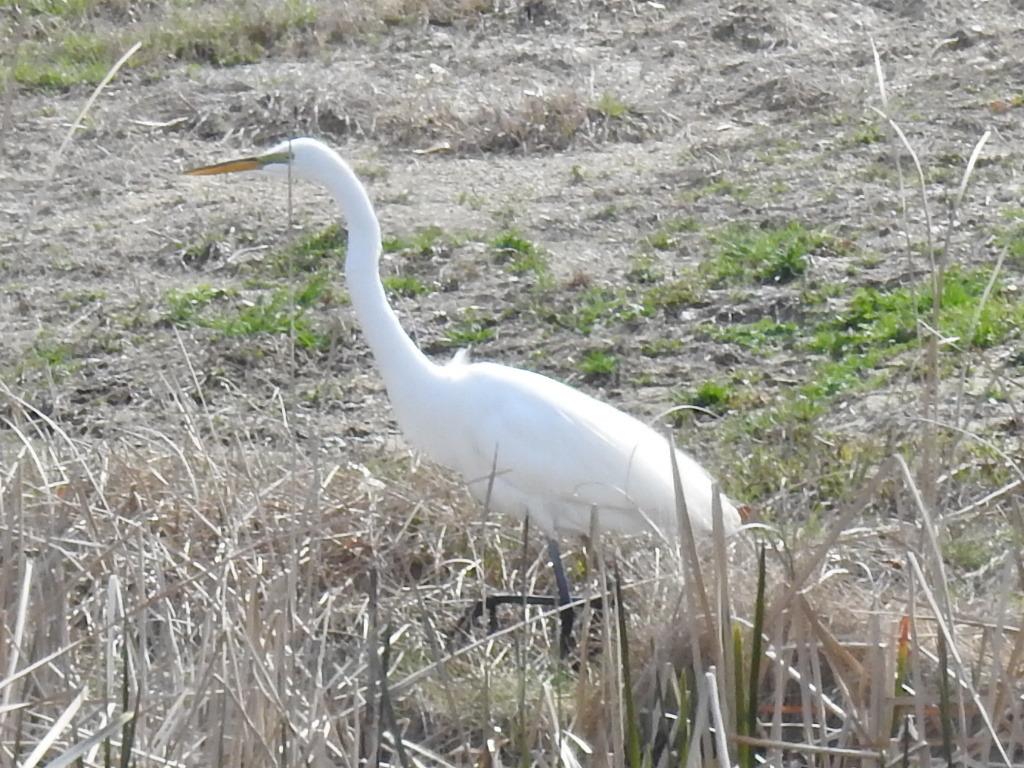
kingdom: Animalia
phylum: Chordata
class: Aves
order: Pelecaniformes
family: Ardeidae
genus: Ardea
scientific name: Ardea alba
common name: Great egret
